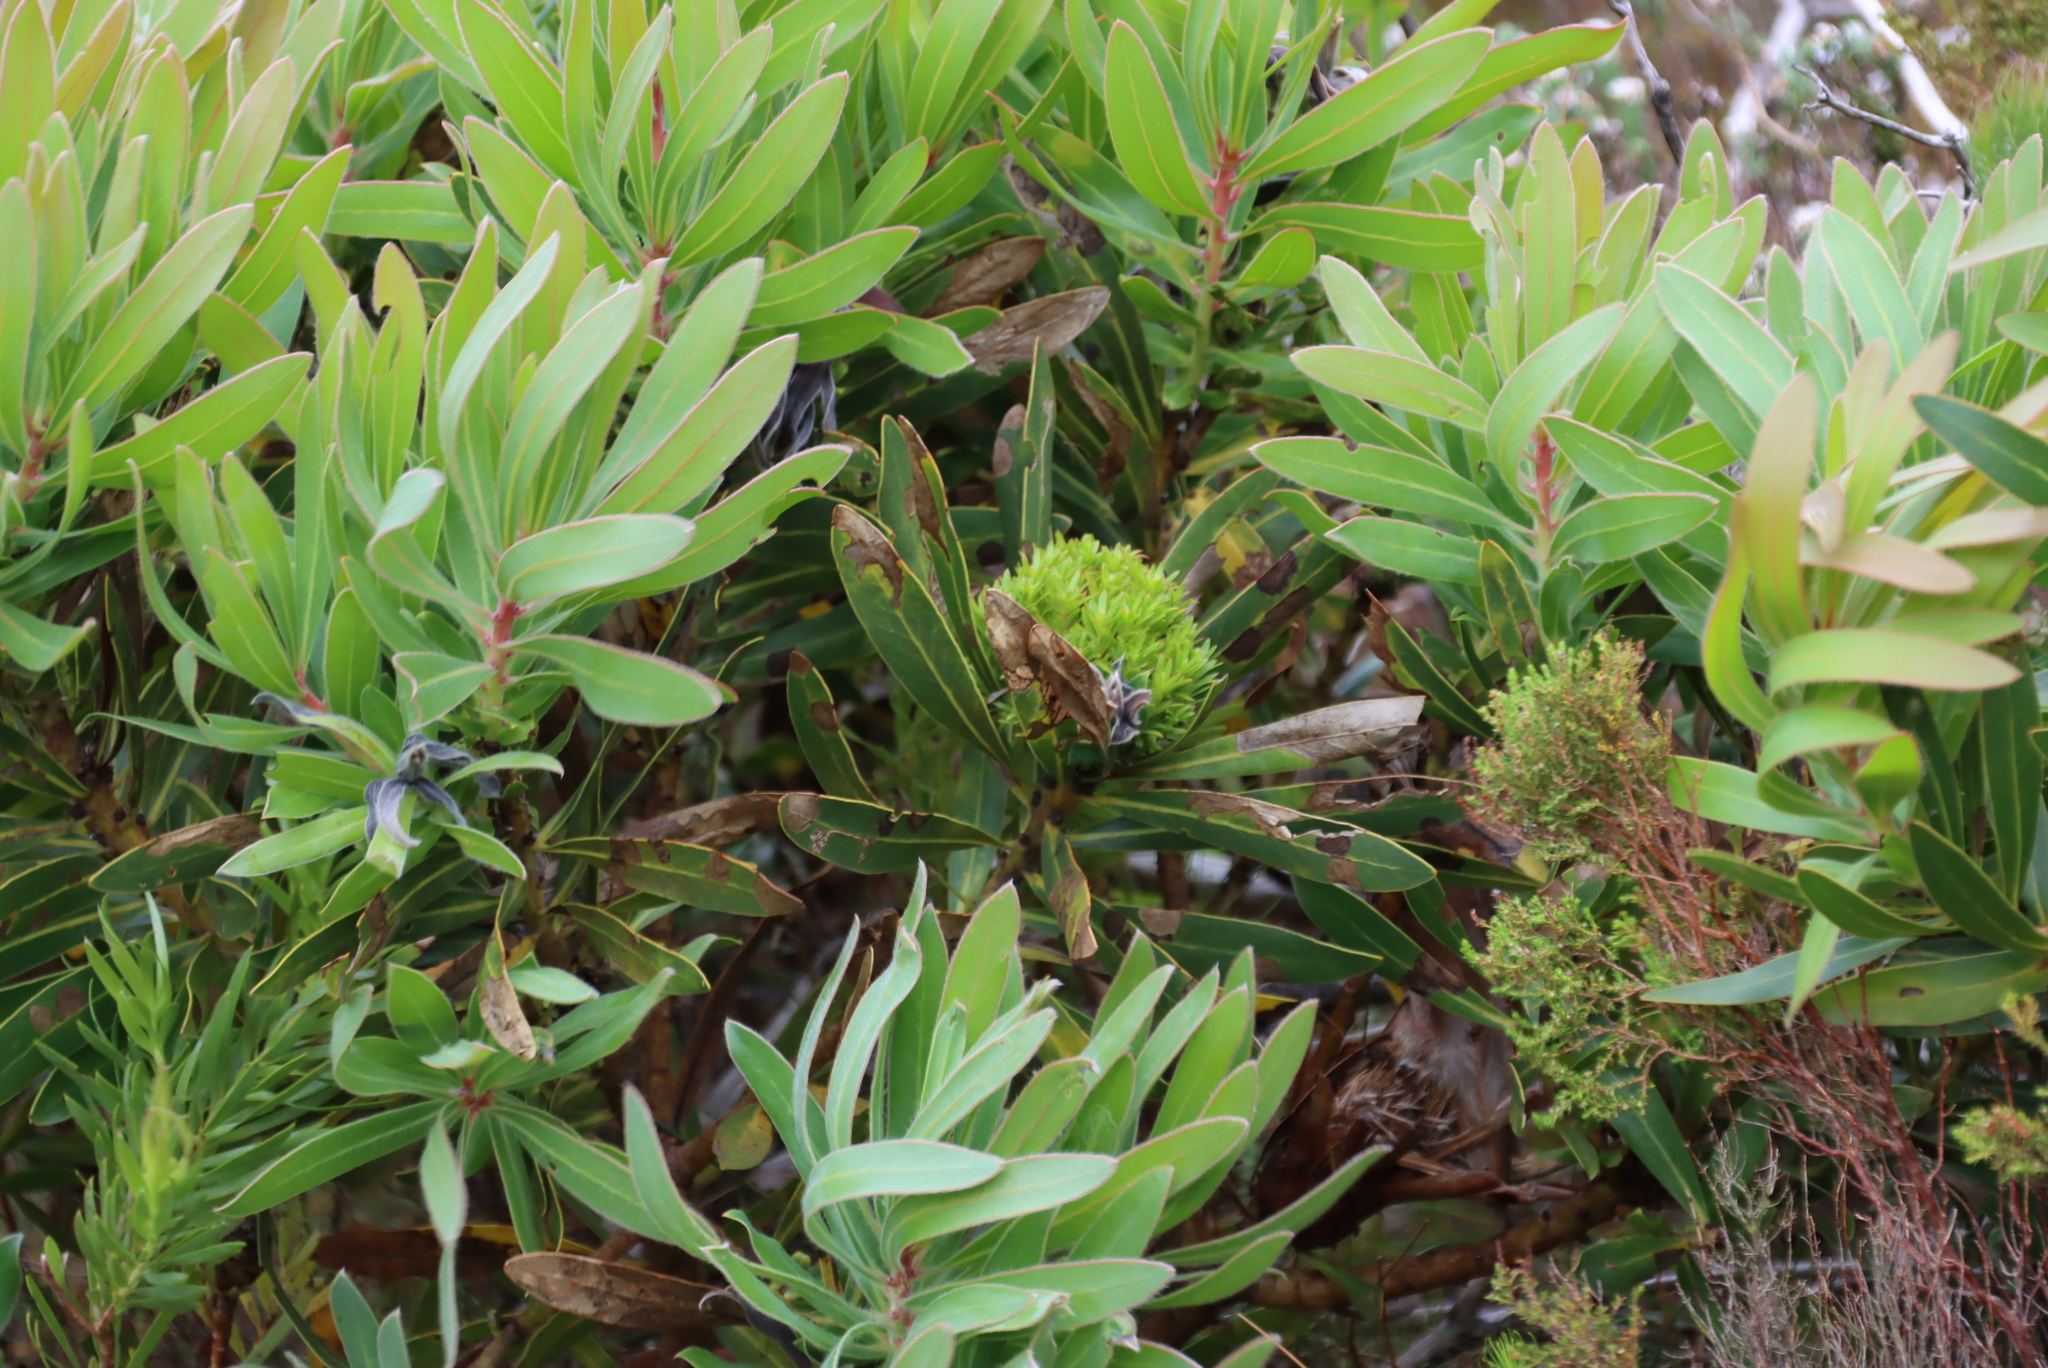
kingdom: Plantae
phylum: Tracheophyta
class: Magnoliopsida
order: Proteales
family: Proteaceae
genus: Protea
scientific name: Protea lepidocarpodendron
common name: Black-bearded protea
